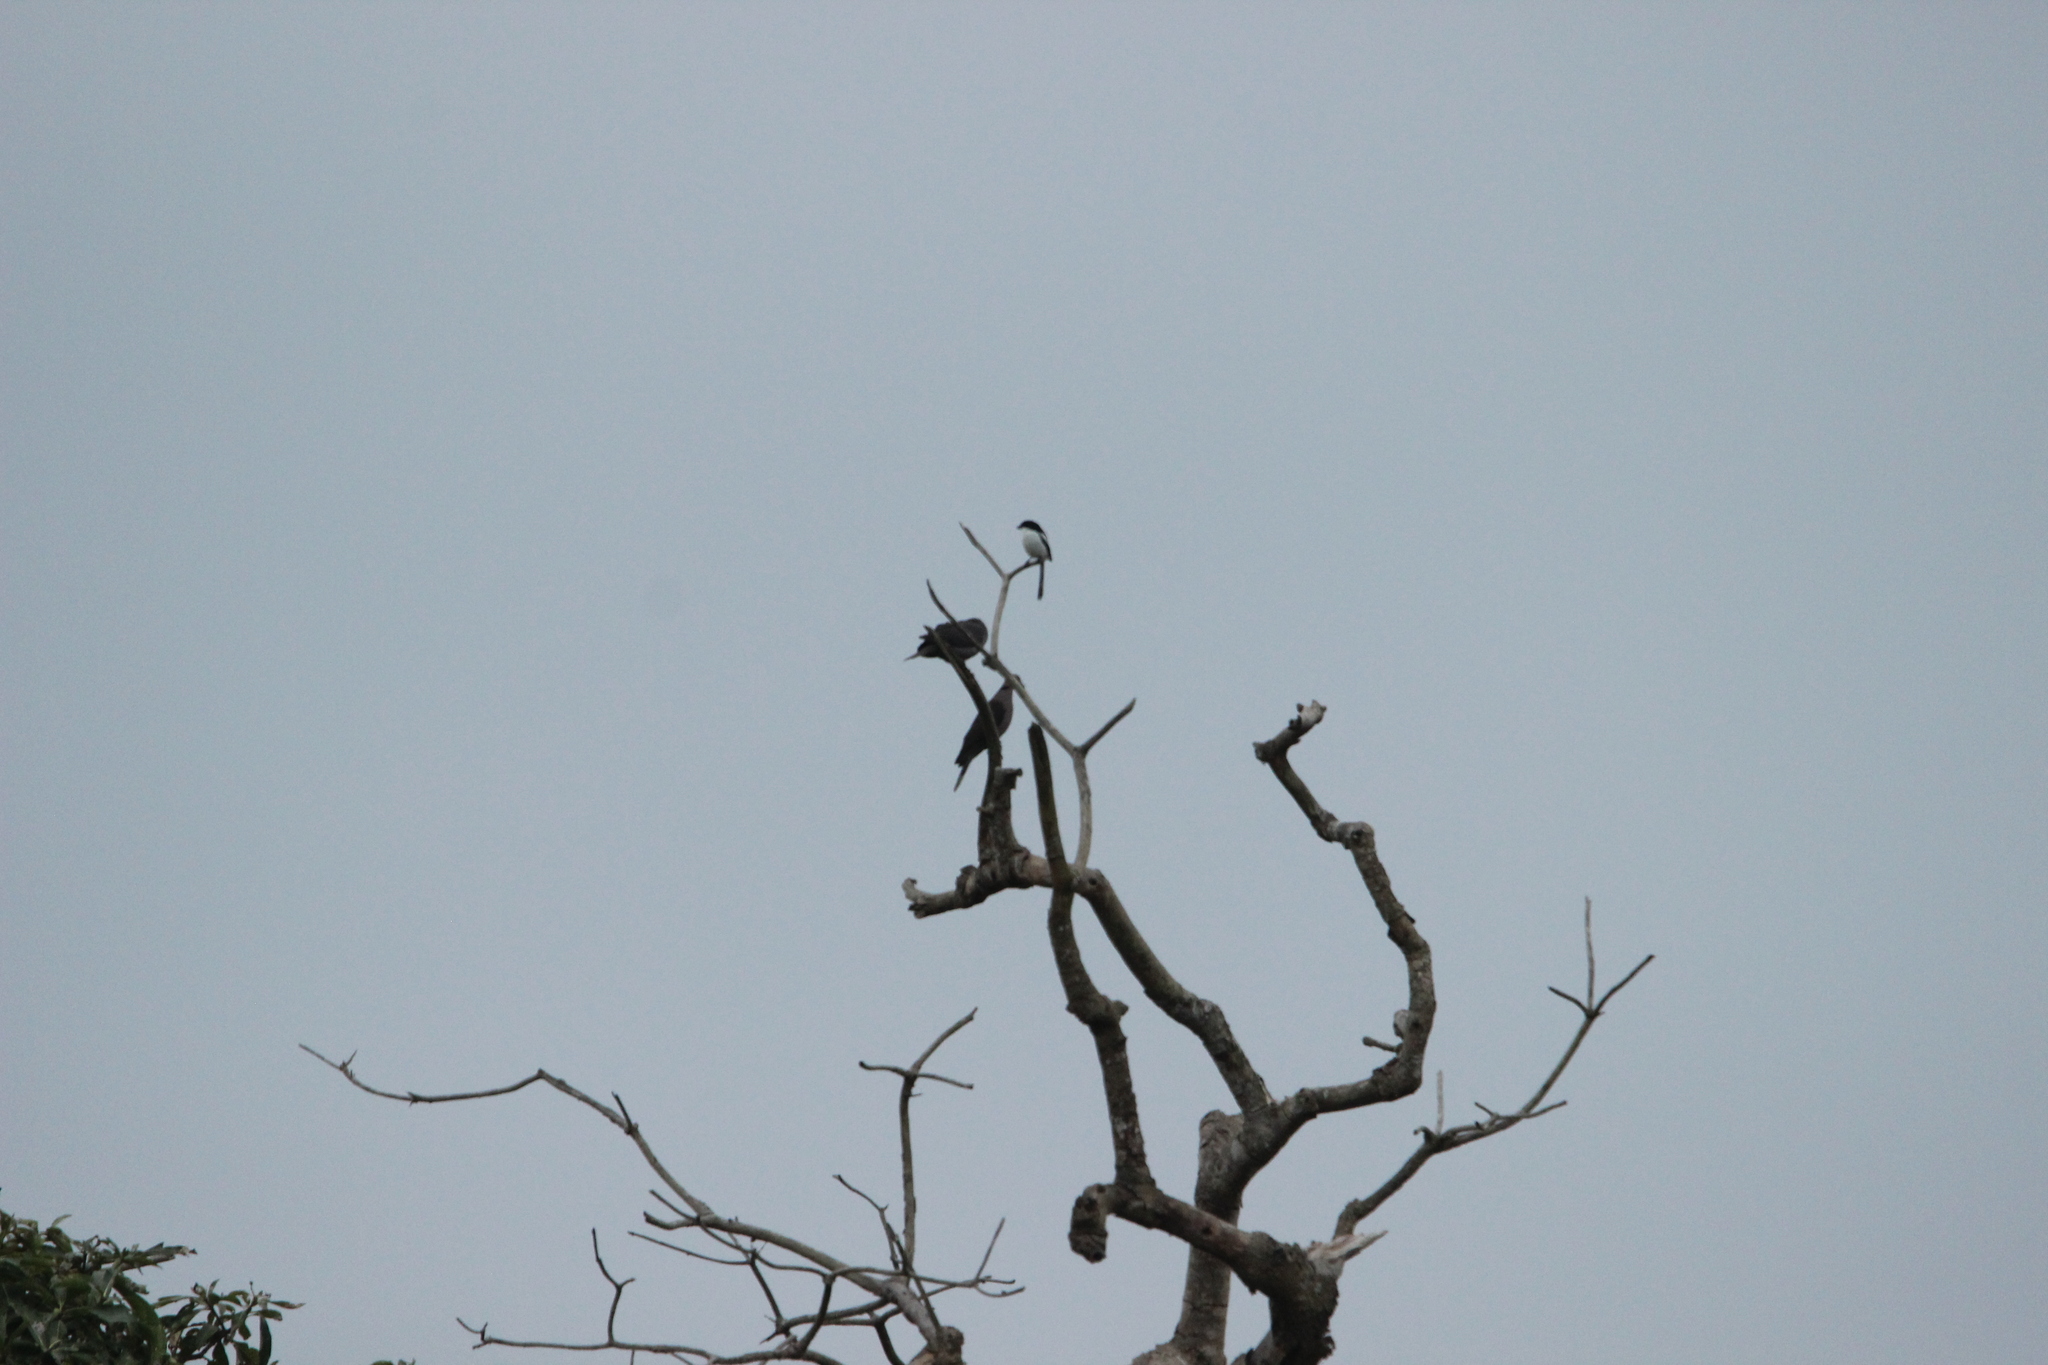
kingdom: Animalia
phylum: Chordata
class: Aves
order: Passeriformes
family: Laniidae
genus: Lanius
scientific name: Lanius humeralis
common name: Northern fiscal
